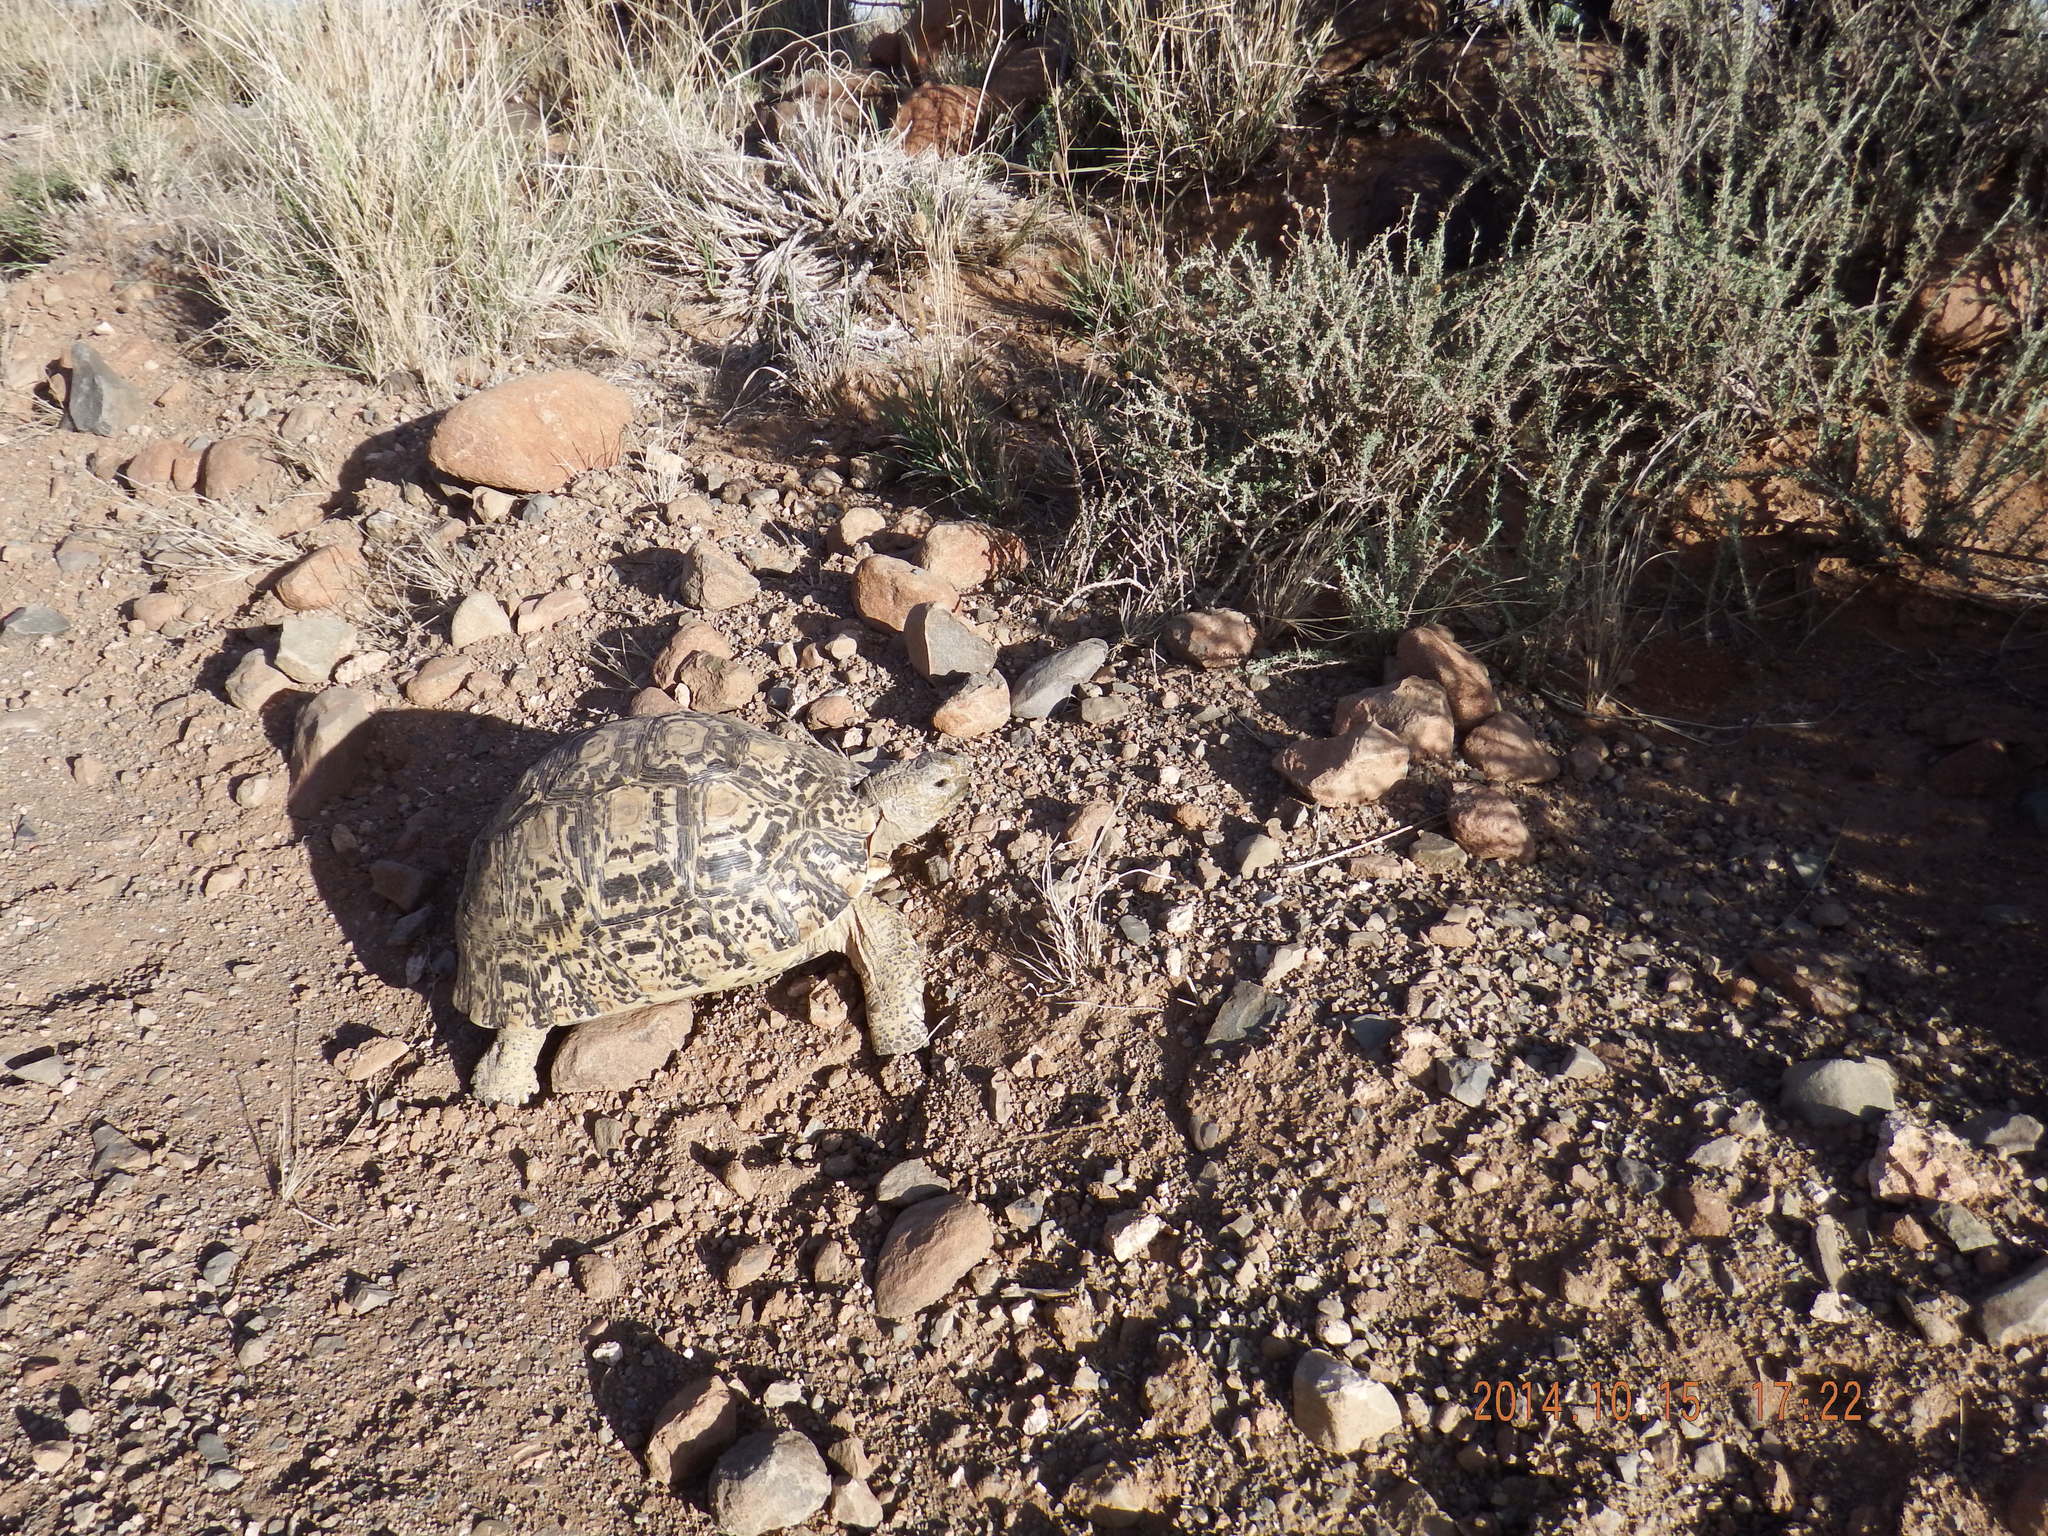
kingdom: Animalia
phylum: Chordata
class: Testudines
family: Testudinidae
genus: Stigmochelys
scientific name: Stigmochelys pardalis
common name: Leopard tortoise
